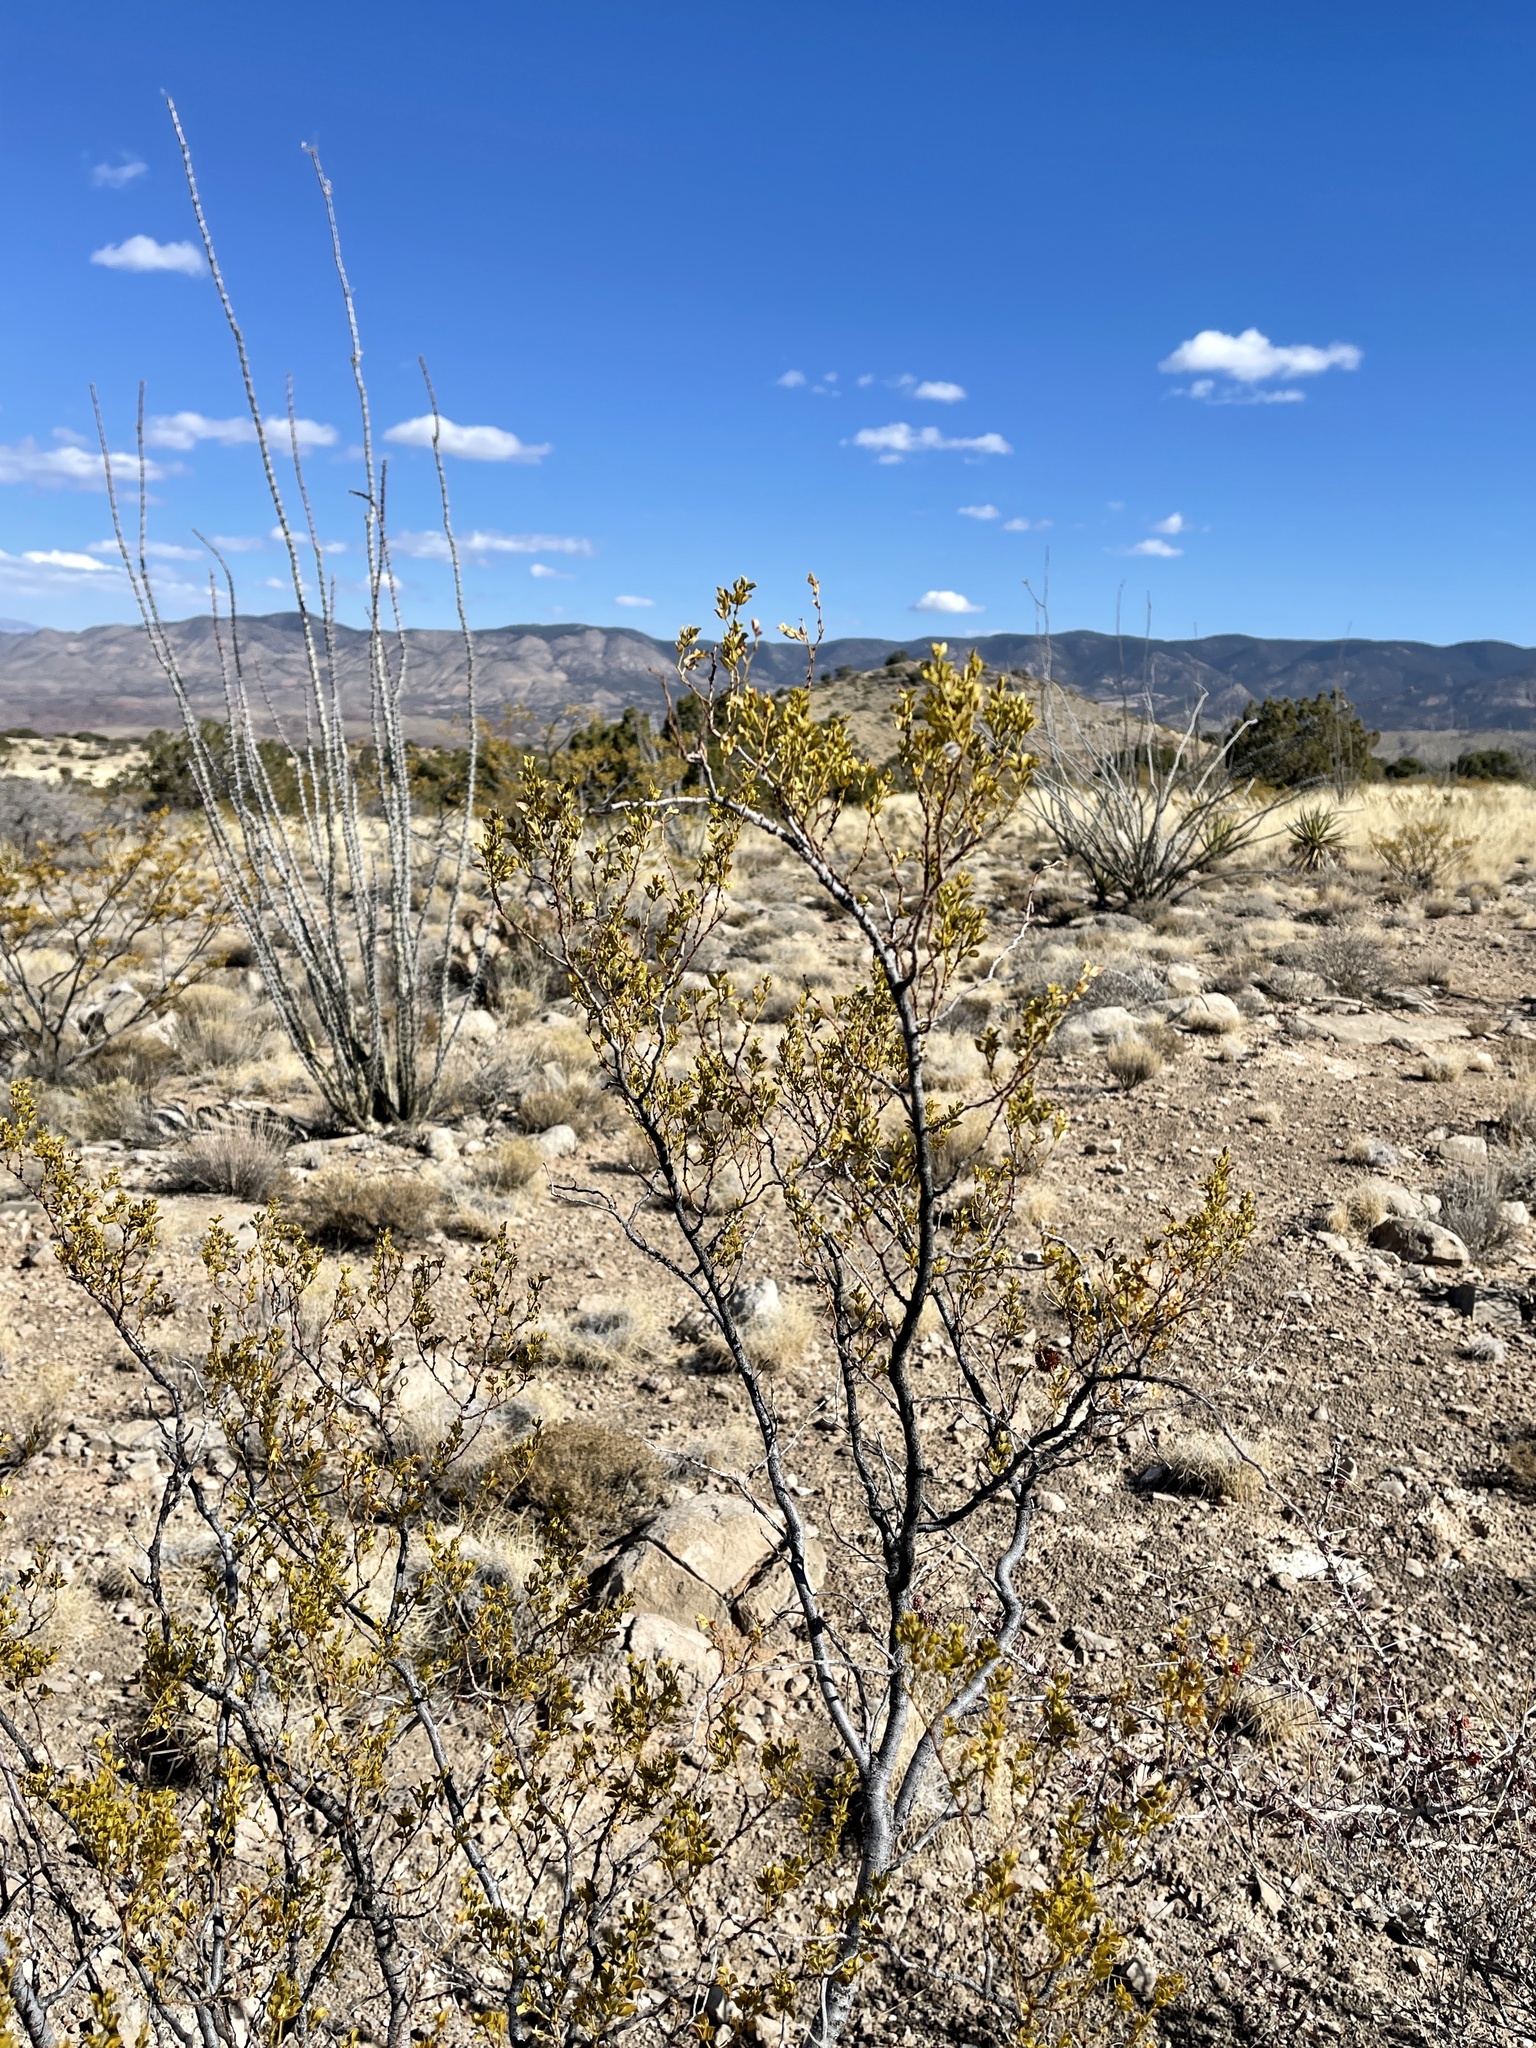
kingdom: Plantae
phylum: Tracheophyta
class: Magnoliopsida
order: Zygophyllales
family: Zygophyllaceae
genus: Larrea
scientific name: Larrea tridentata
